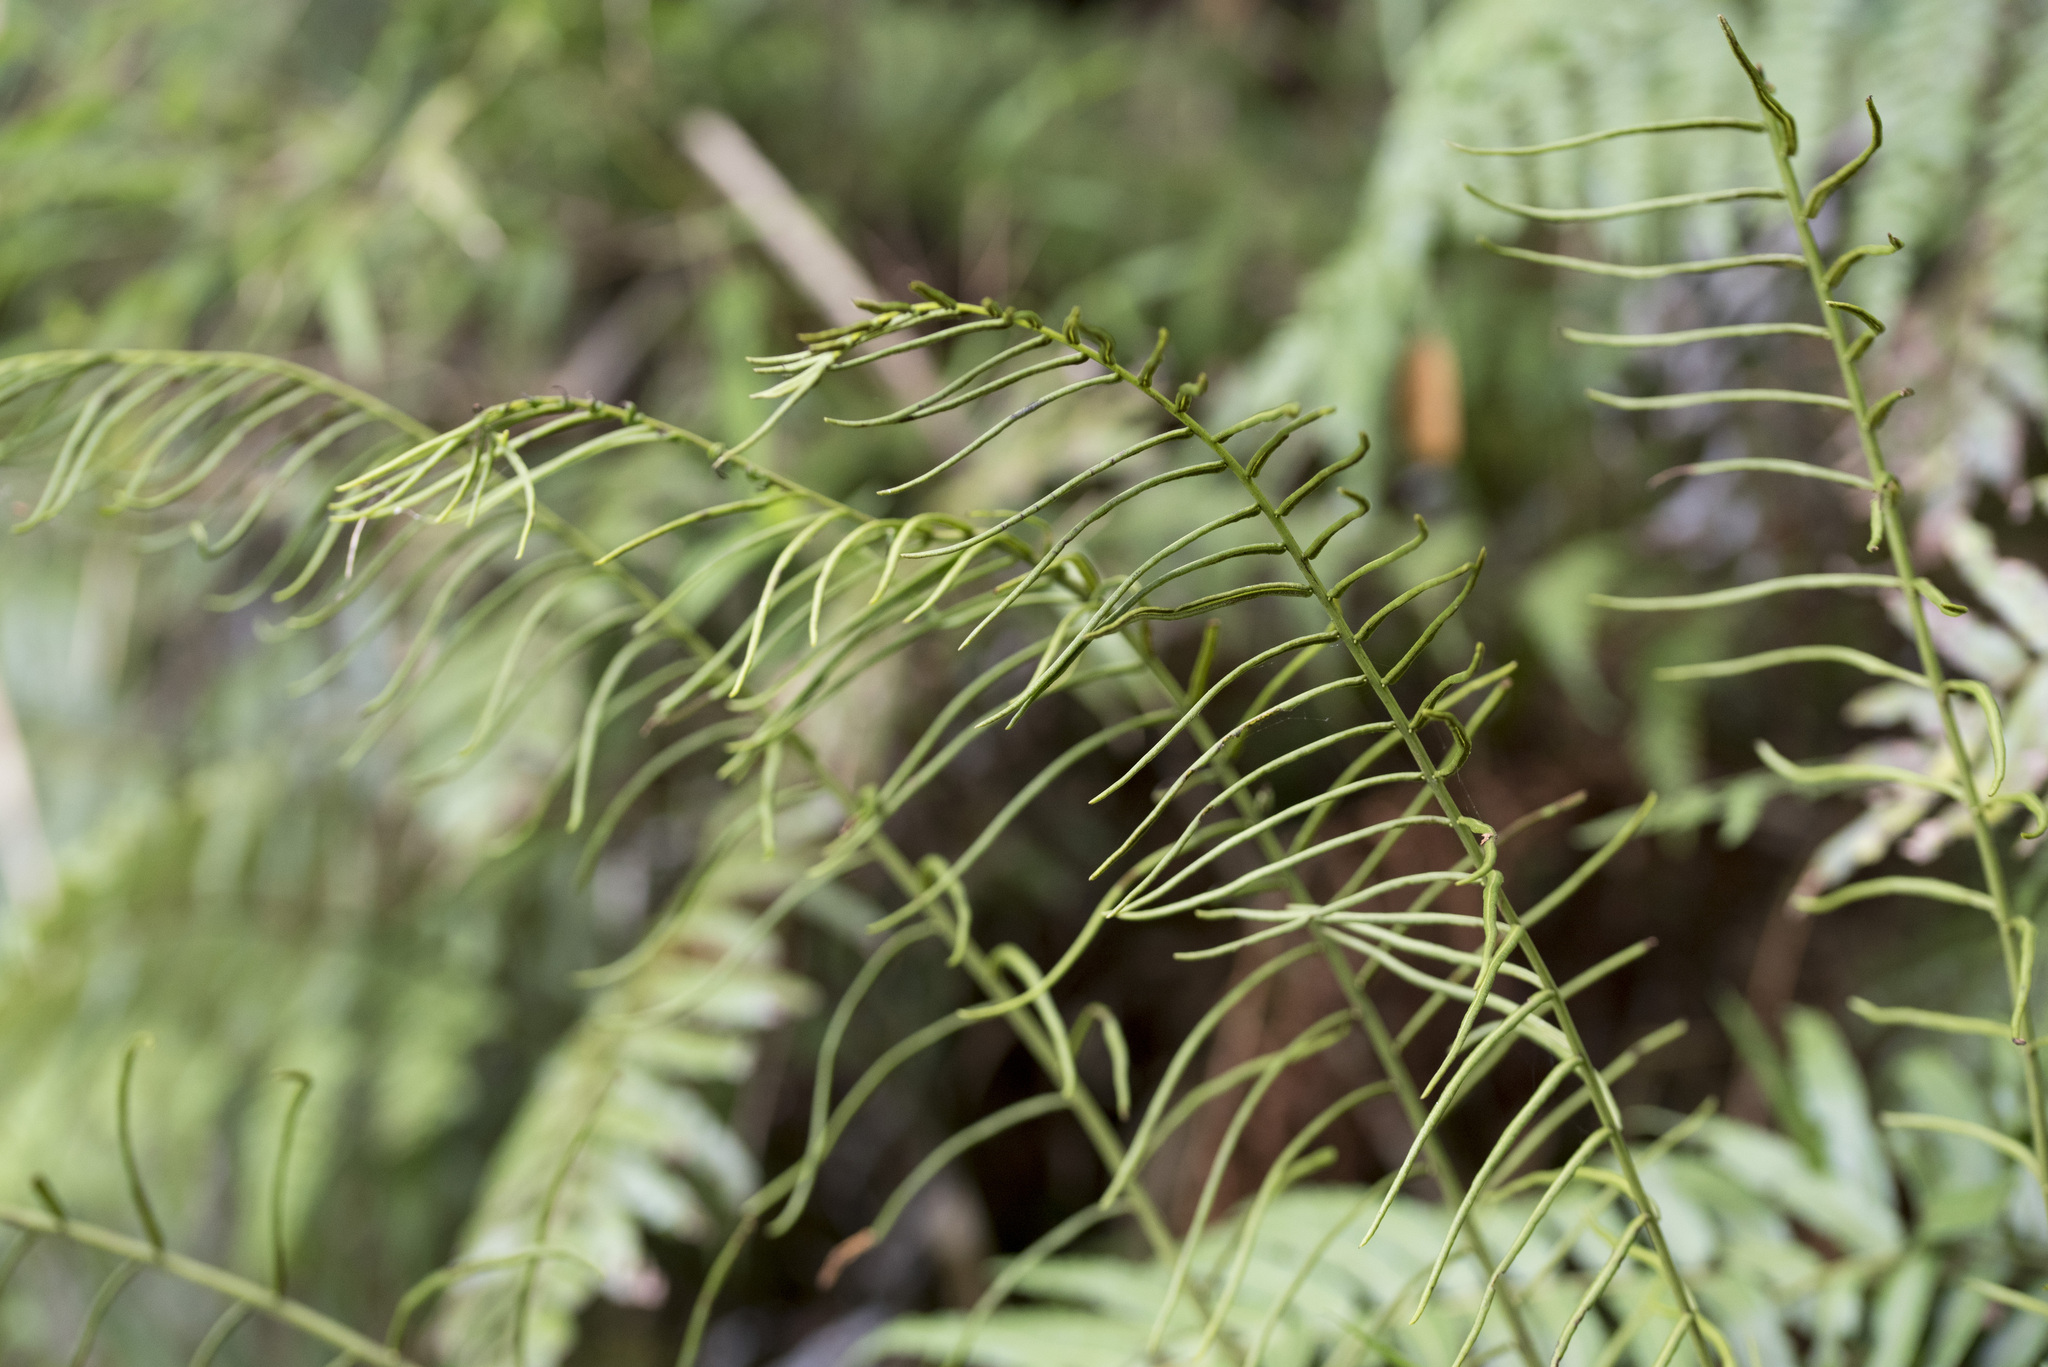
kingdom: Plantae
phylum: Tracheophyta
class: Polypodiopsida
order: Cyatheales
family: Plagiogyriaceae
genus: Plagiogyria
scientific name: Plagiogyria glauca
